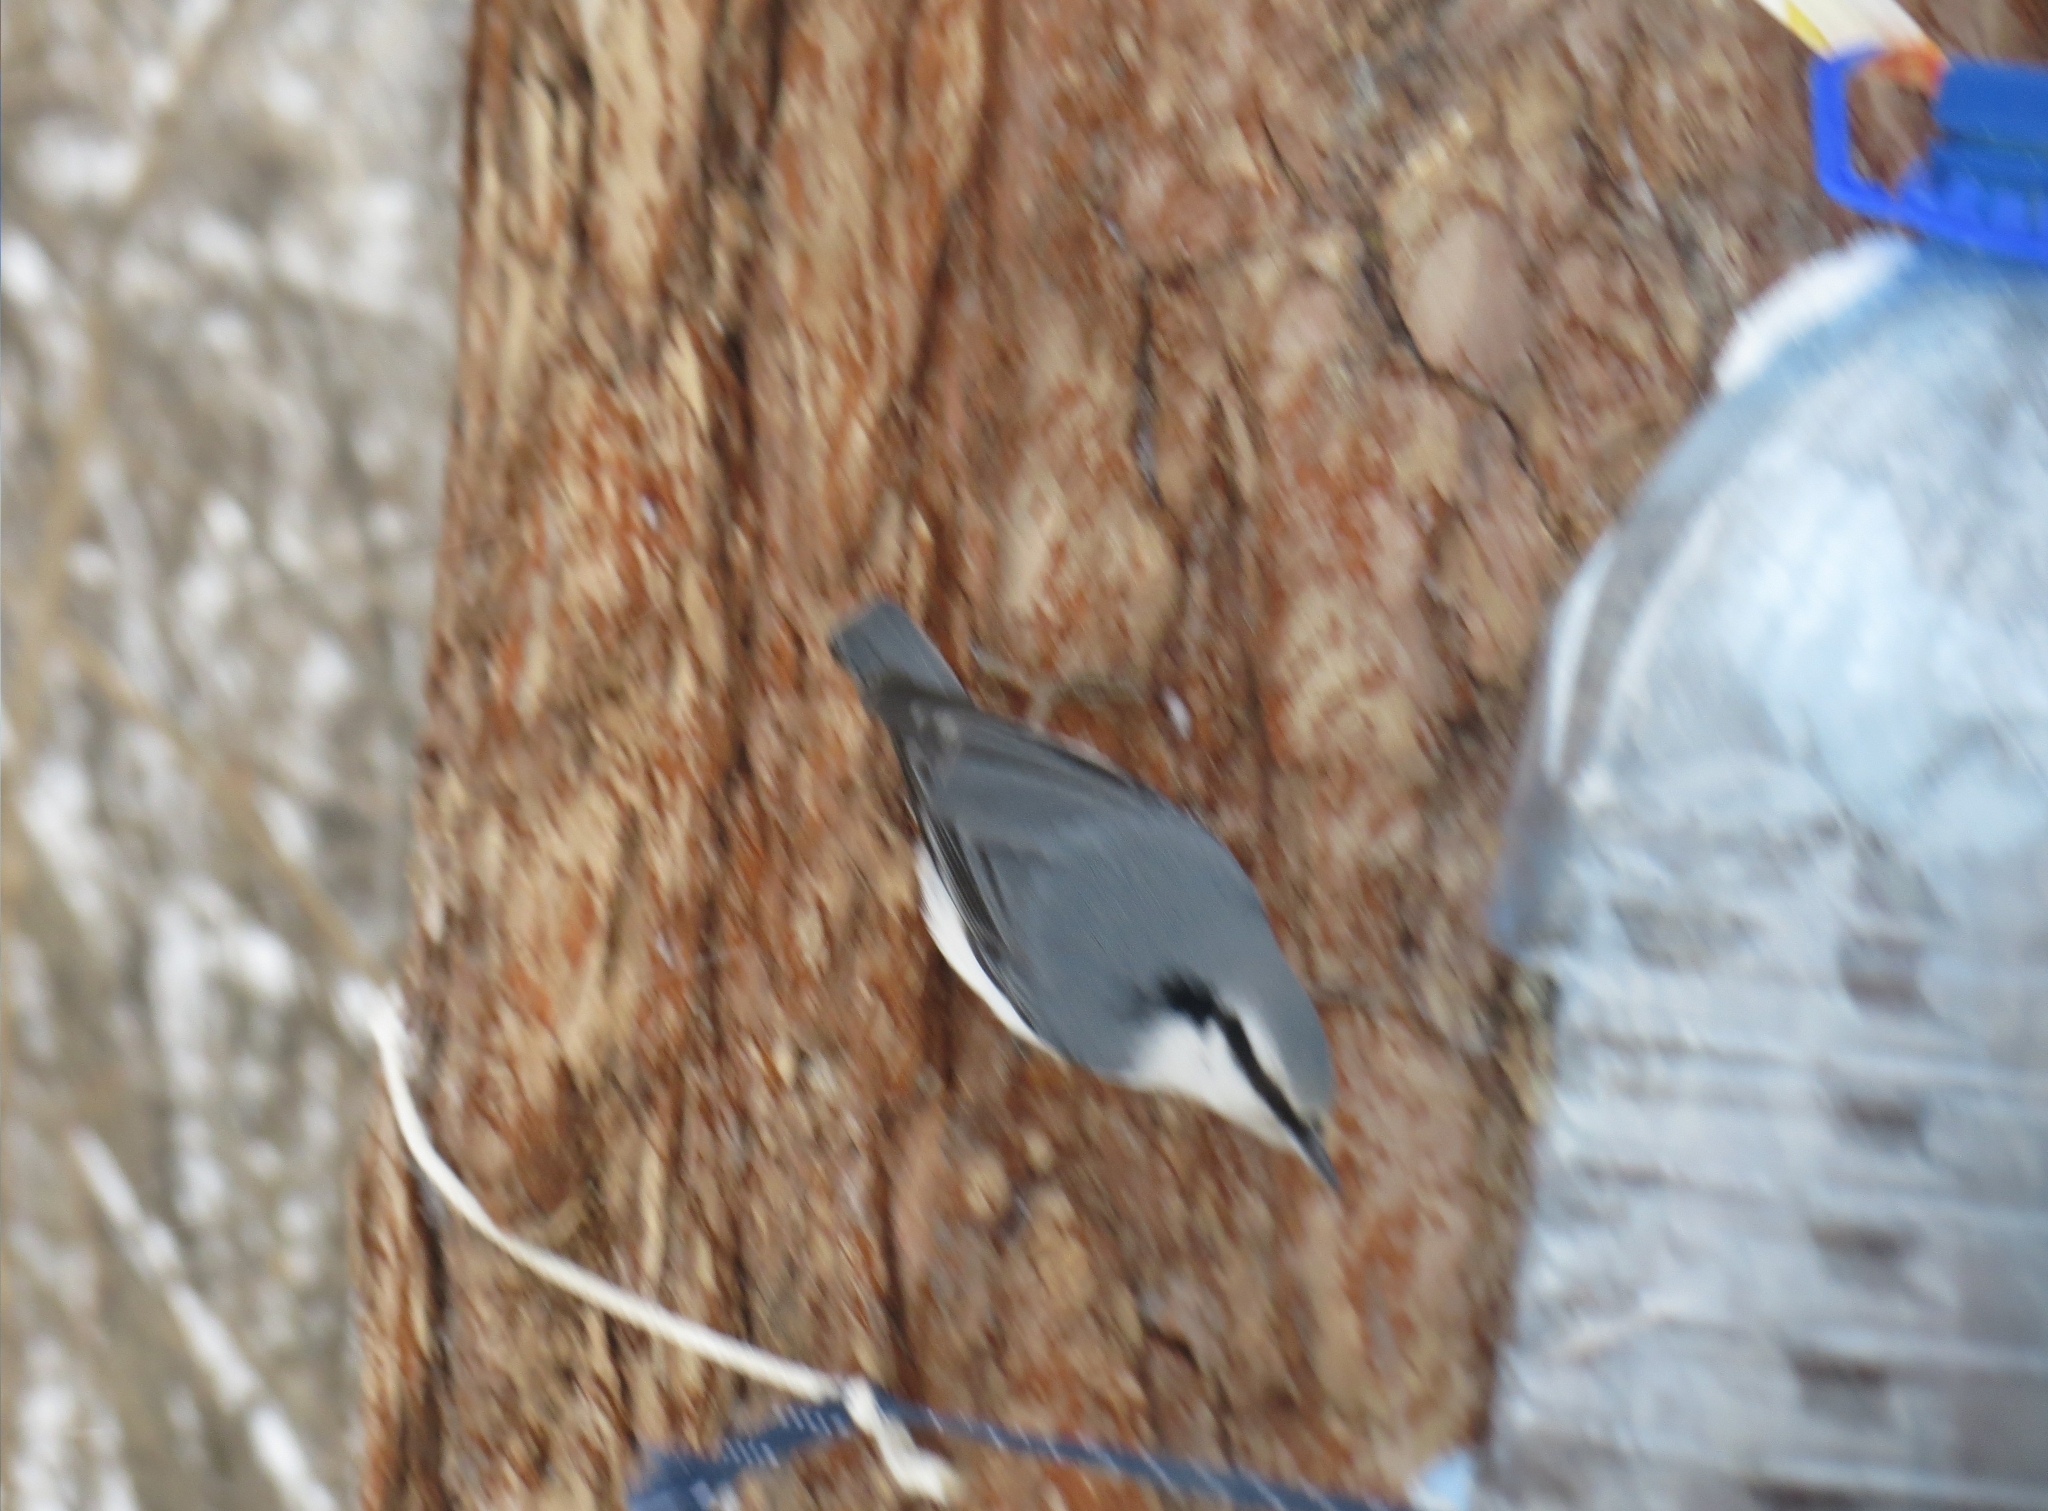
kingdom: Animalia
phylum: Chordata
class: Aves
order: Passeriformes
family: Sittidae
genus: Sitta
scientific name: Sitta europaea
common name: Eurasian nuthatch
